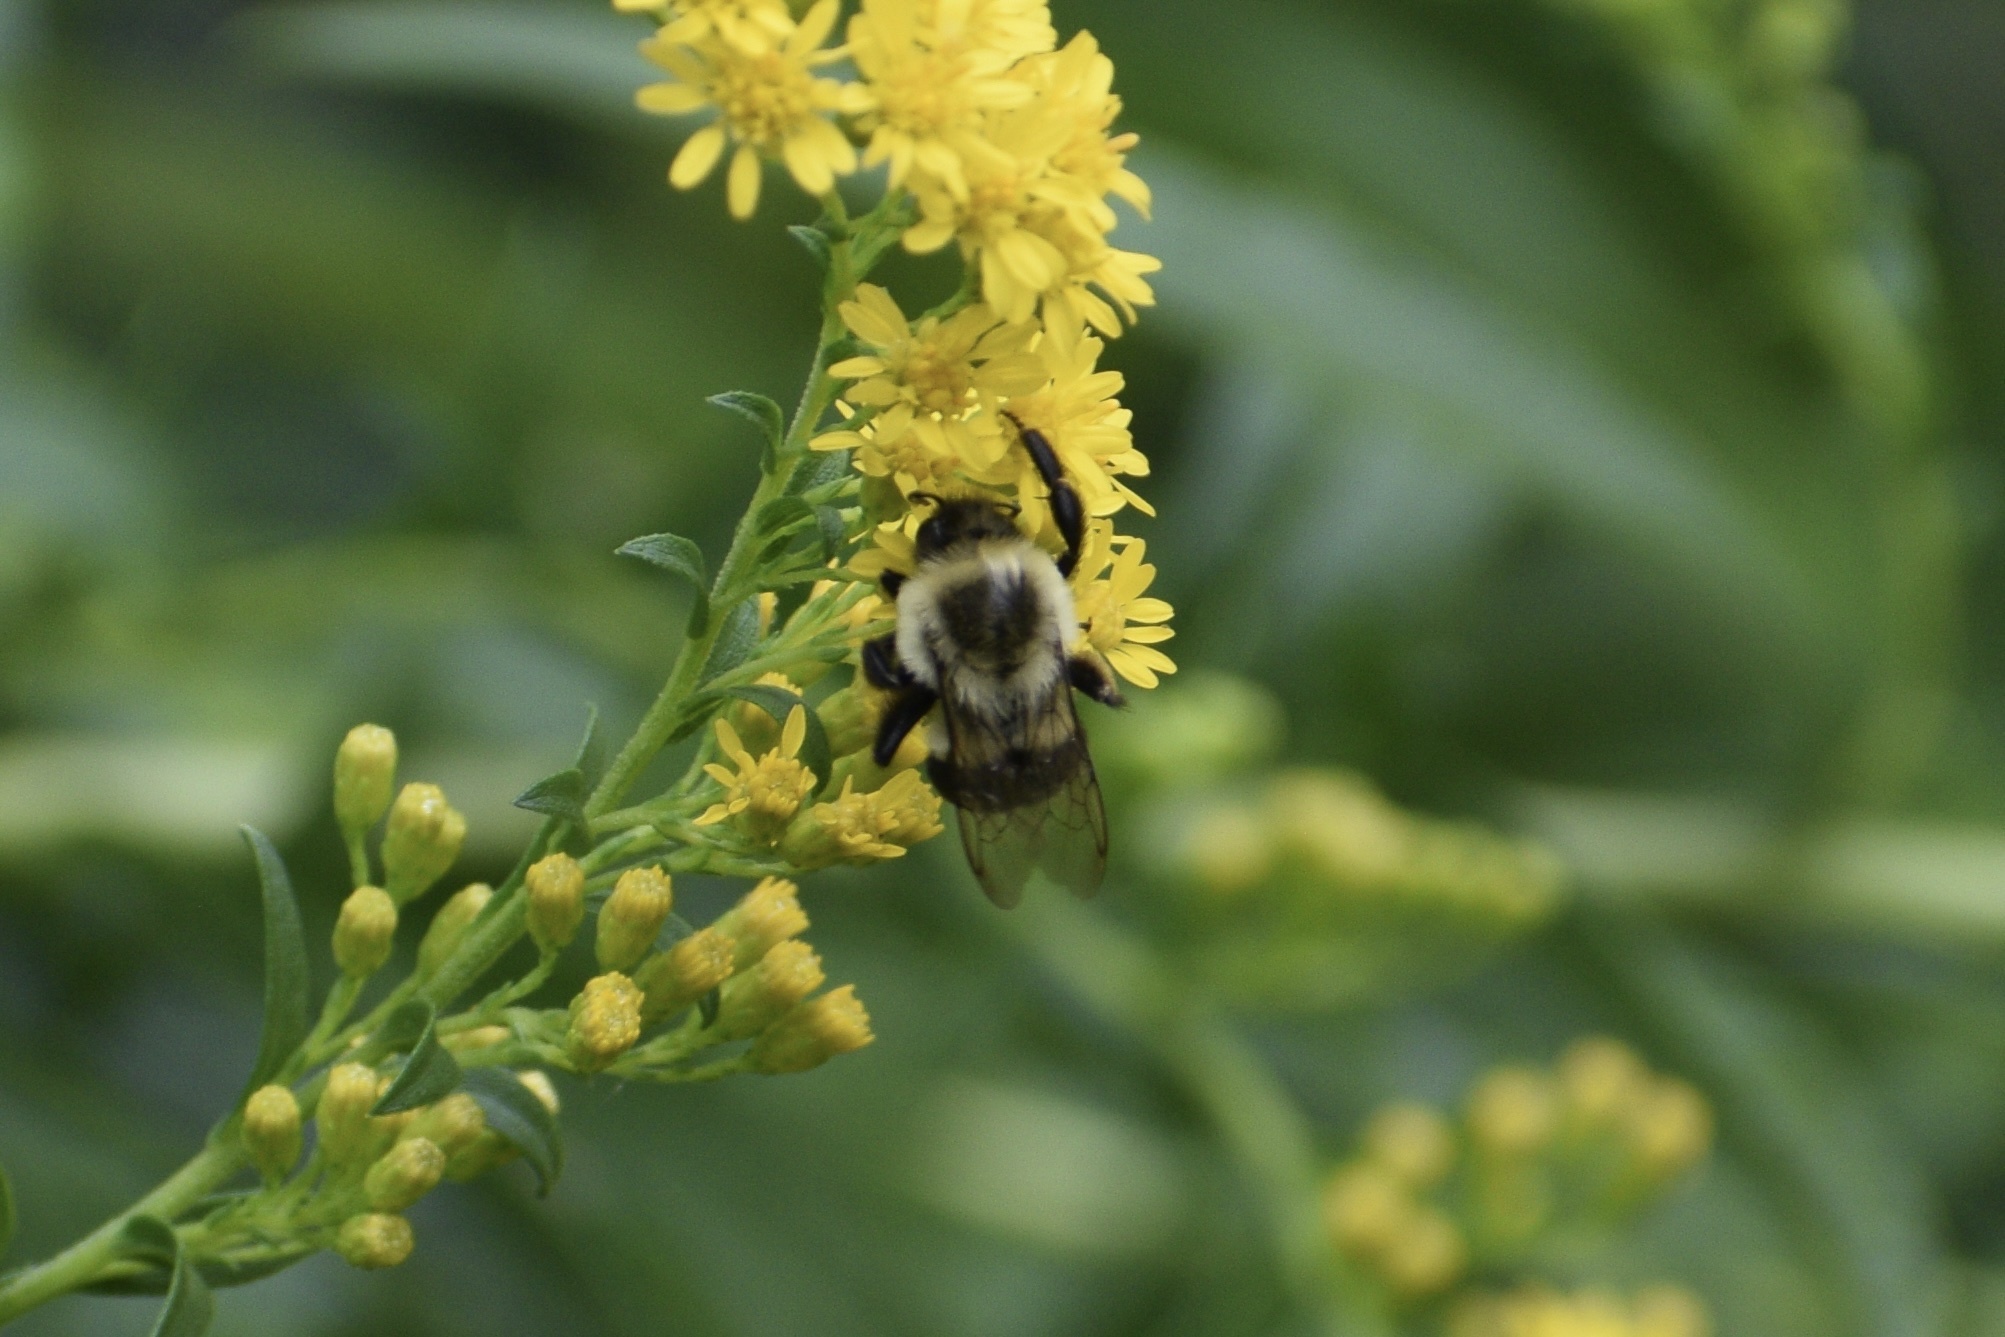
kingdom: Animalia
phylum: Arthropoda
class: Insecta
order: Hymenoptera
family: Apidae
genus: Bombus
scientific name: Bombus impatiens
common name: Common eastern bumble bee
